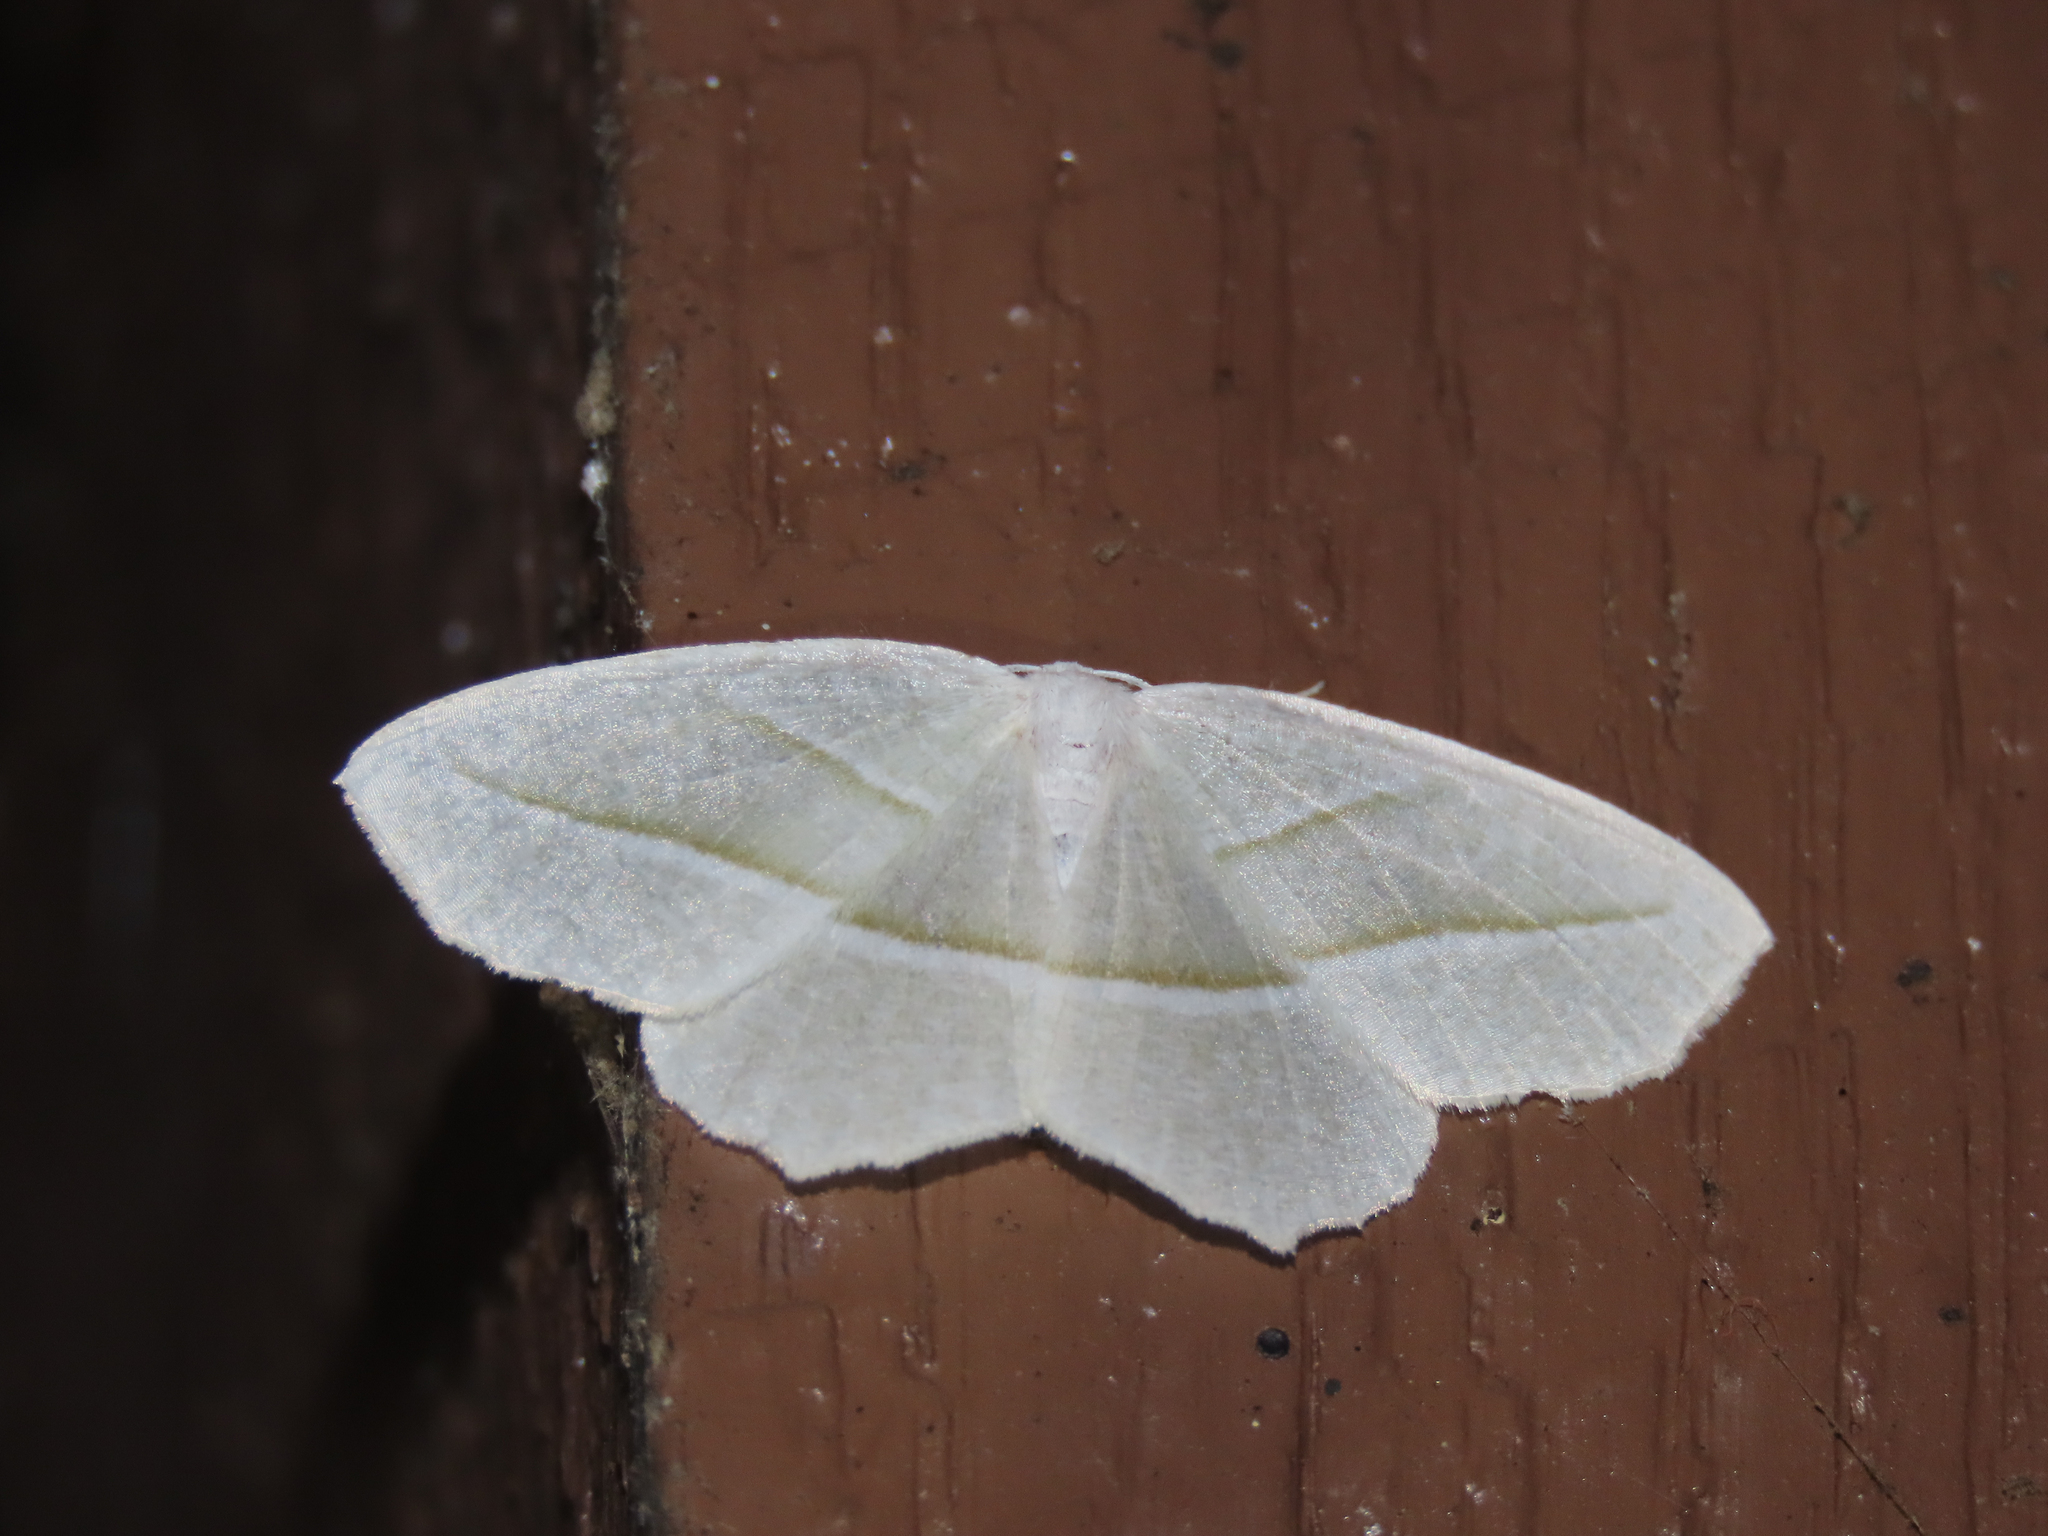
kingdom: Animalia
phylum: Arthropoda
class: Insecta
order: Lepidoptera
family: Geometridae
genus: Campaea
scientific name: Campaea perlata
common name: Fringed looper
